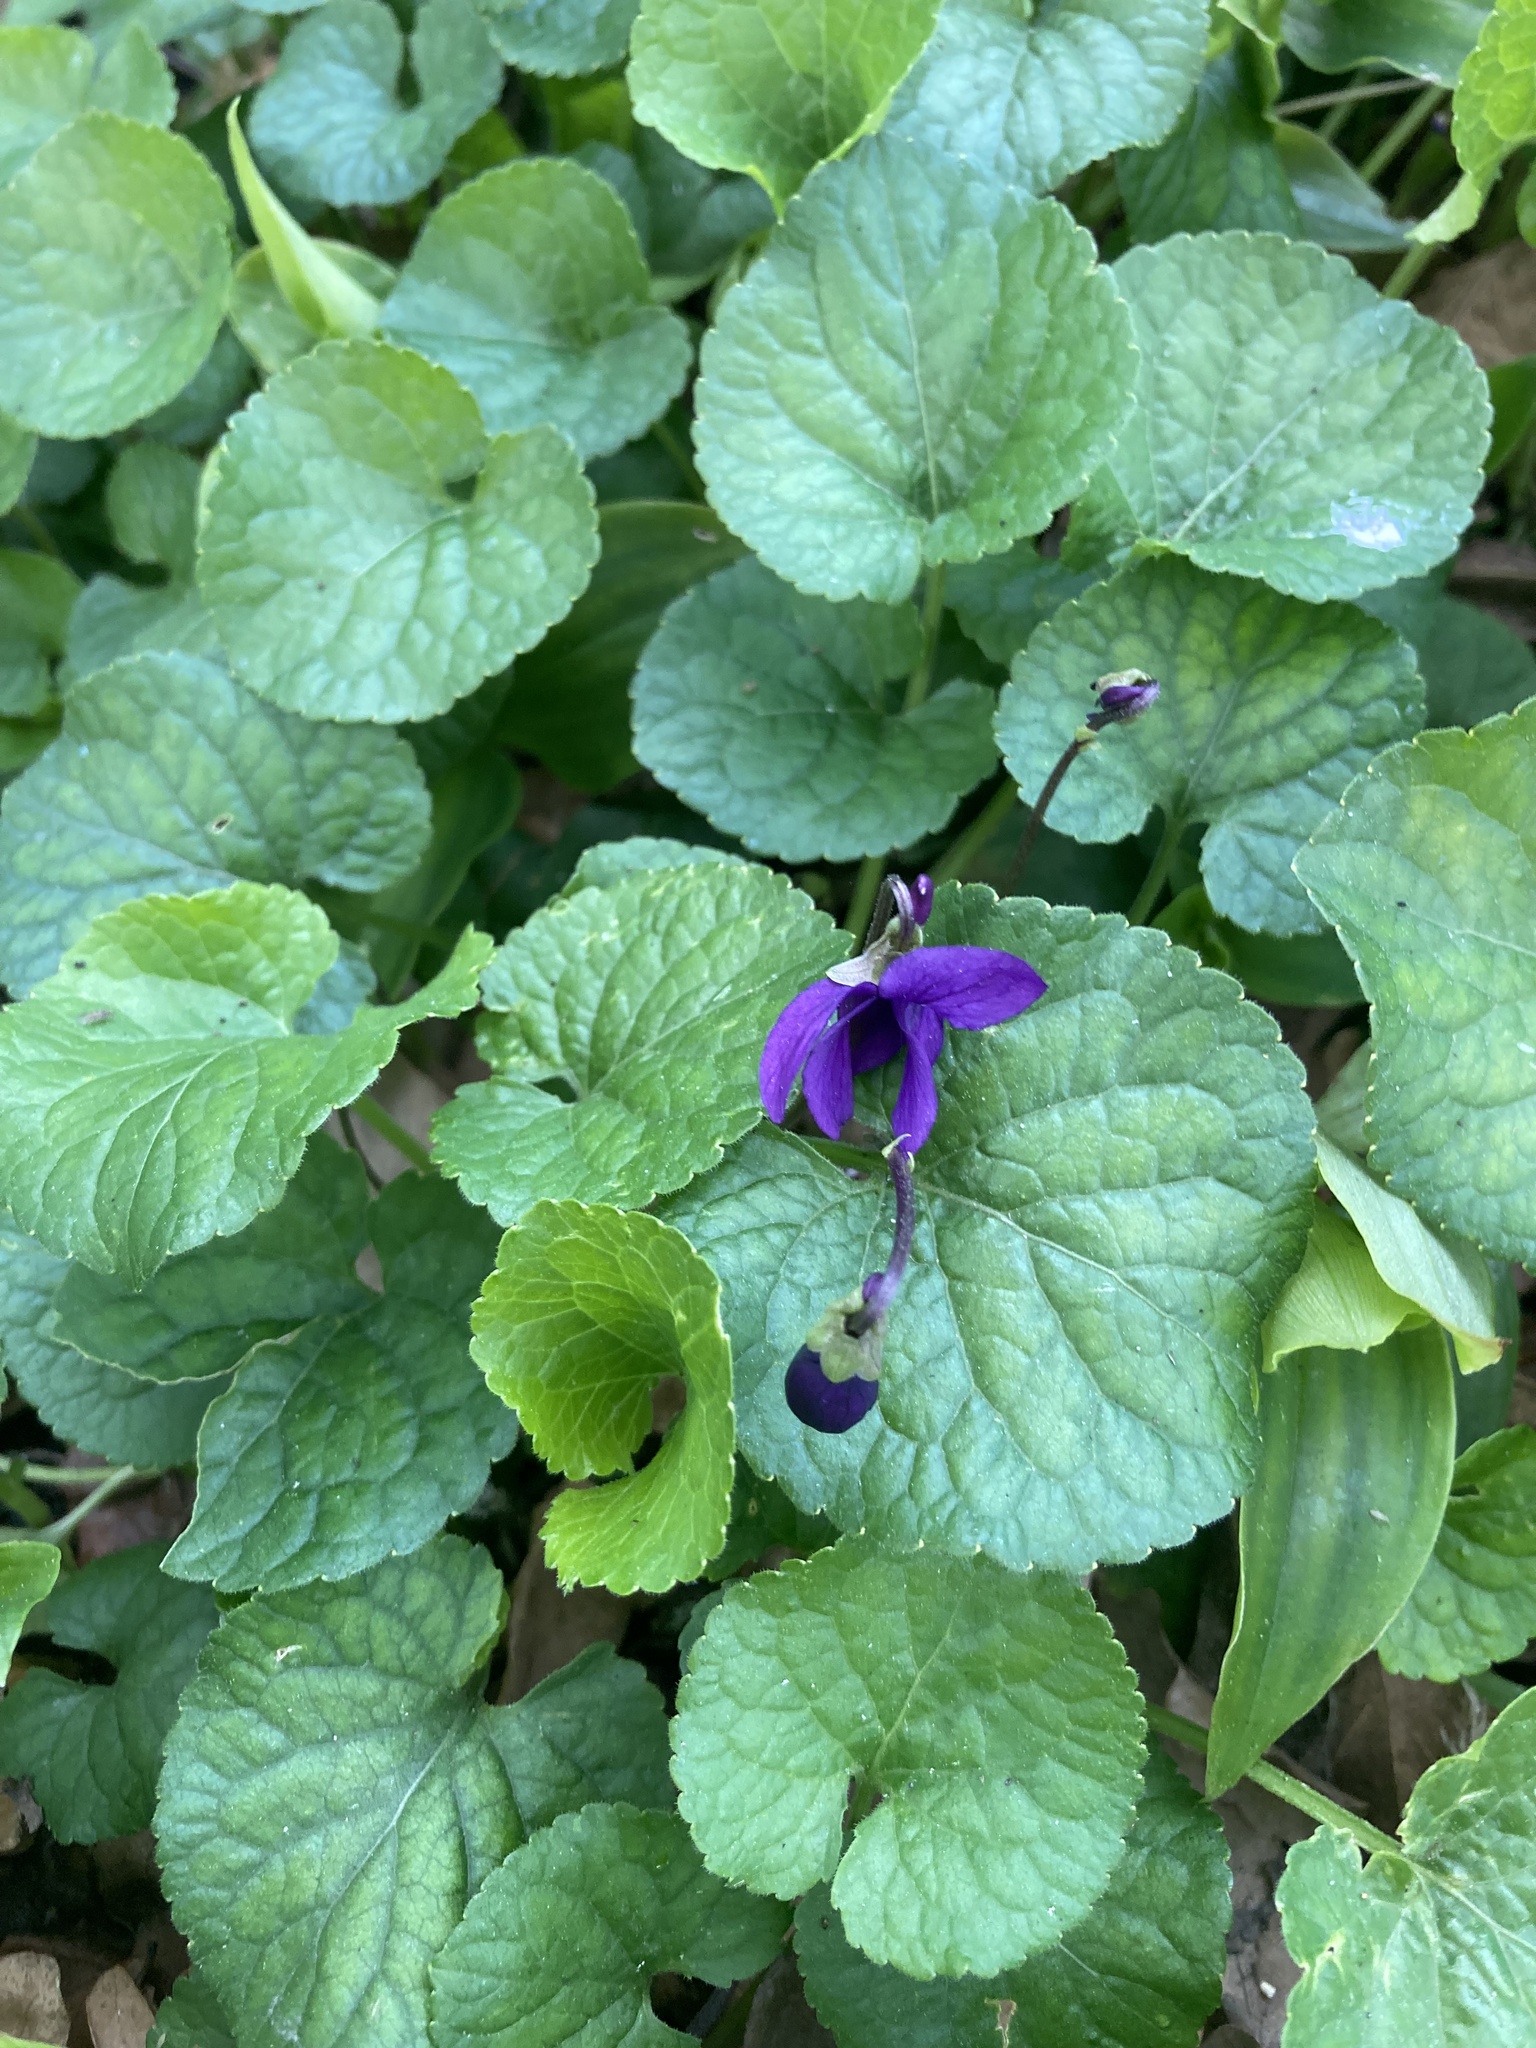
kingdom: Plantae
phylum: Tracheophyta
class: Magnoliopsida
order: Malpighiales
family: Violaceae
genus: Viola
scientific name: Viola odorata
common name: Sweet violet
